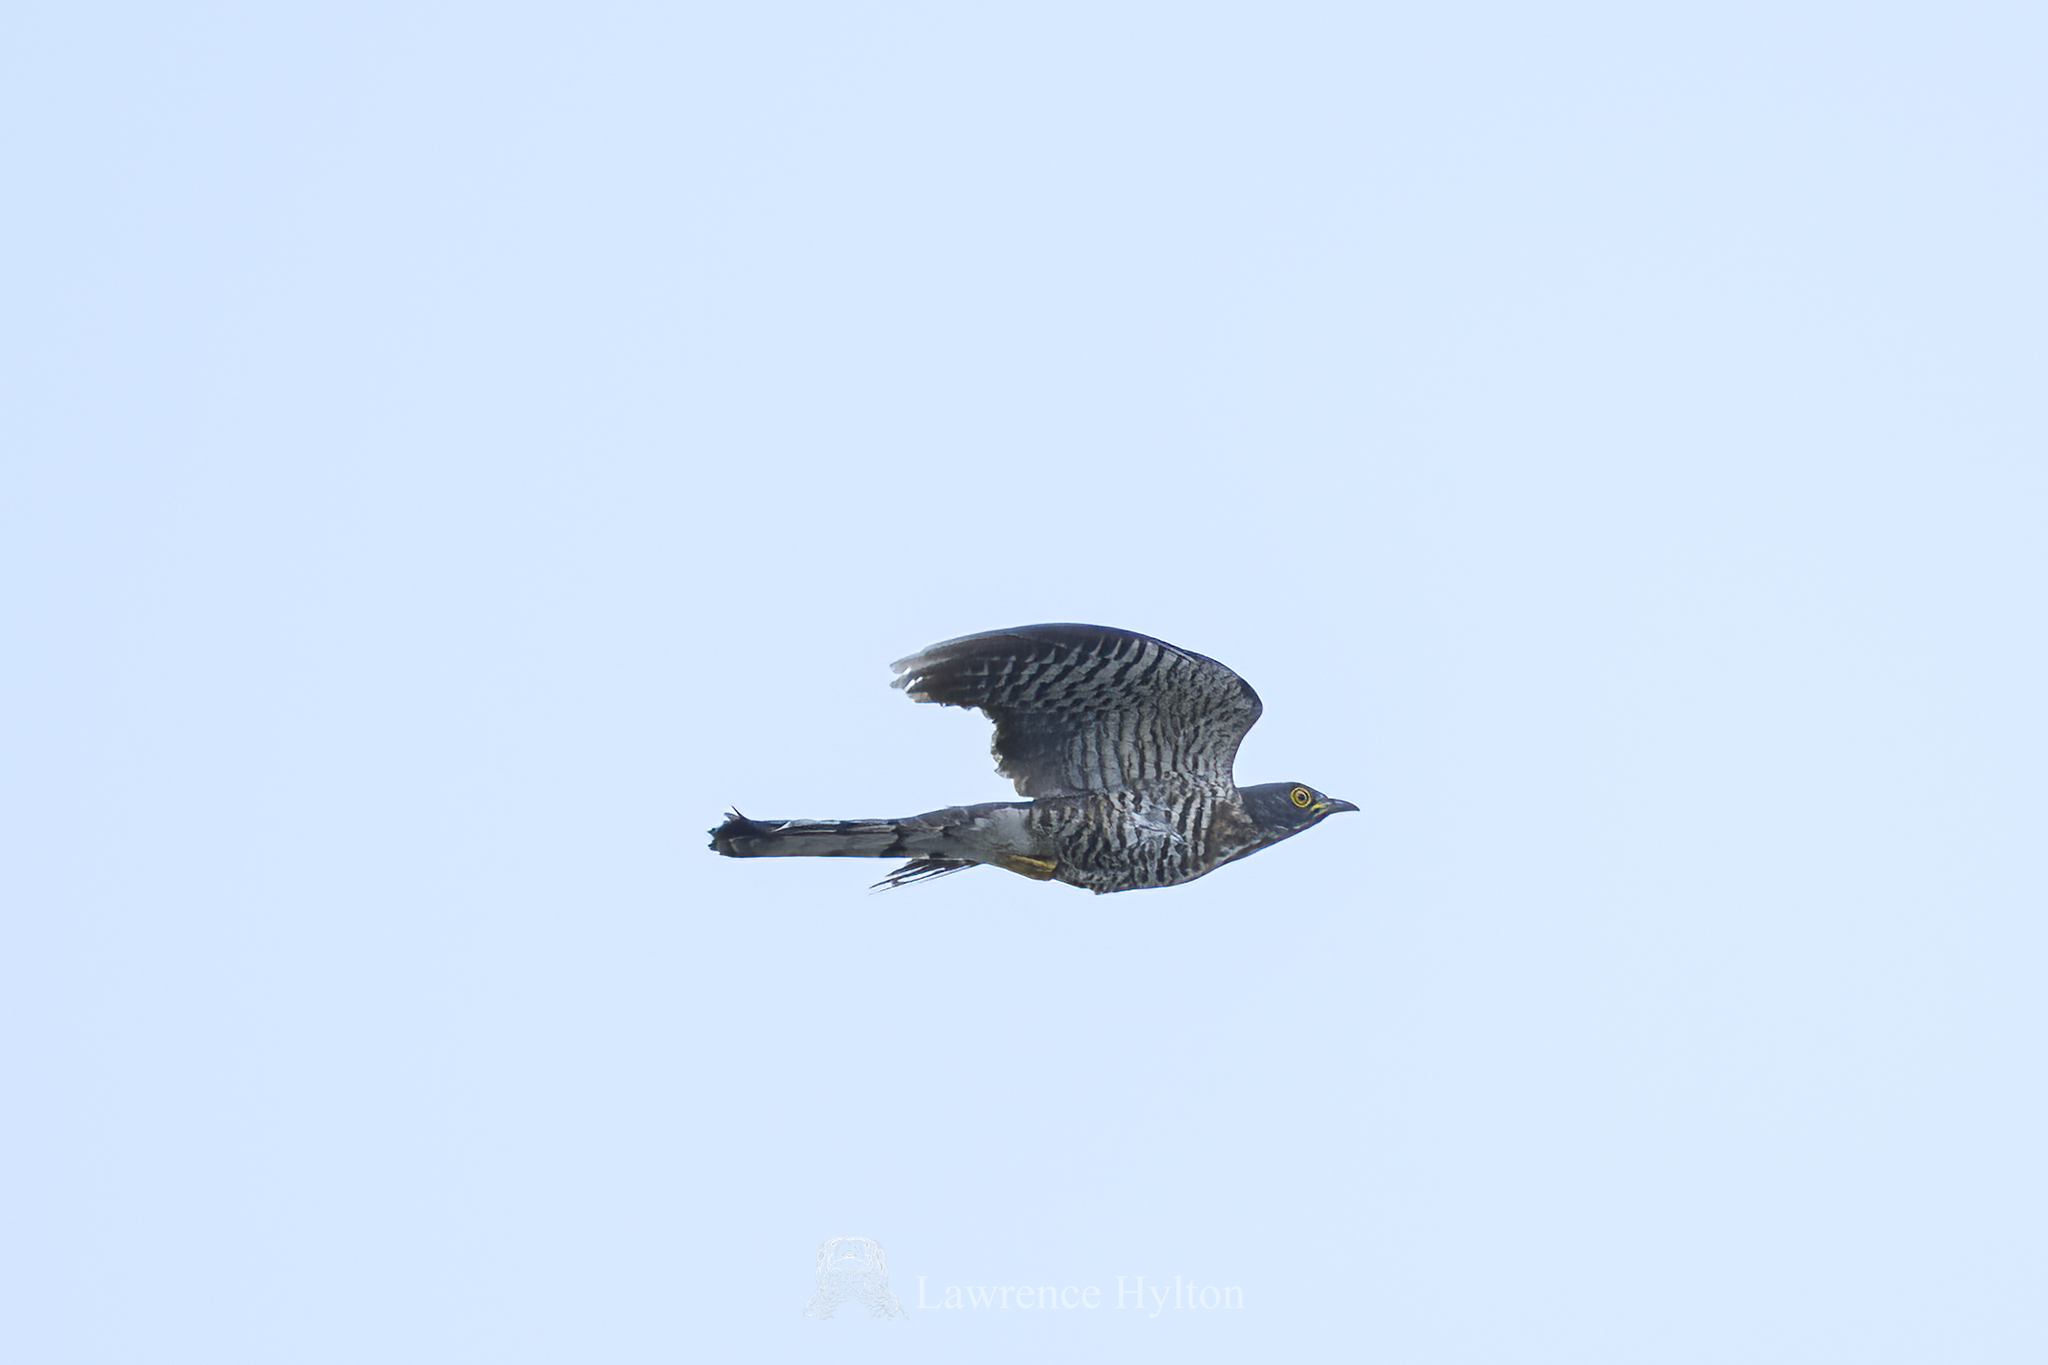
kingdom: Animalia
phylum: Chordata
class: Aves
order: Cuculiformes
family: Cuculidae
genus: Cuculus
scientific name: Cuculus sparverioides
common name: Large hawk cuckoo
